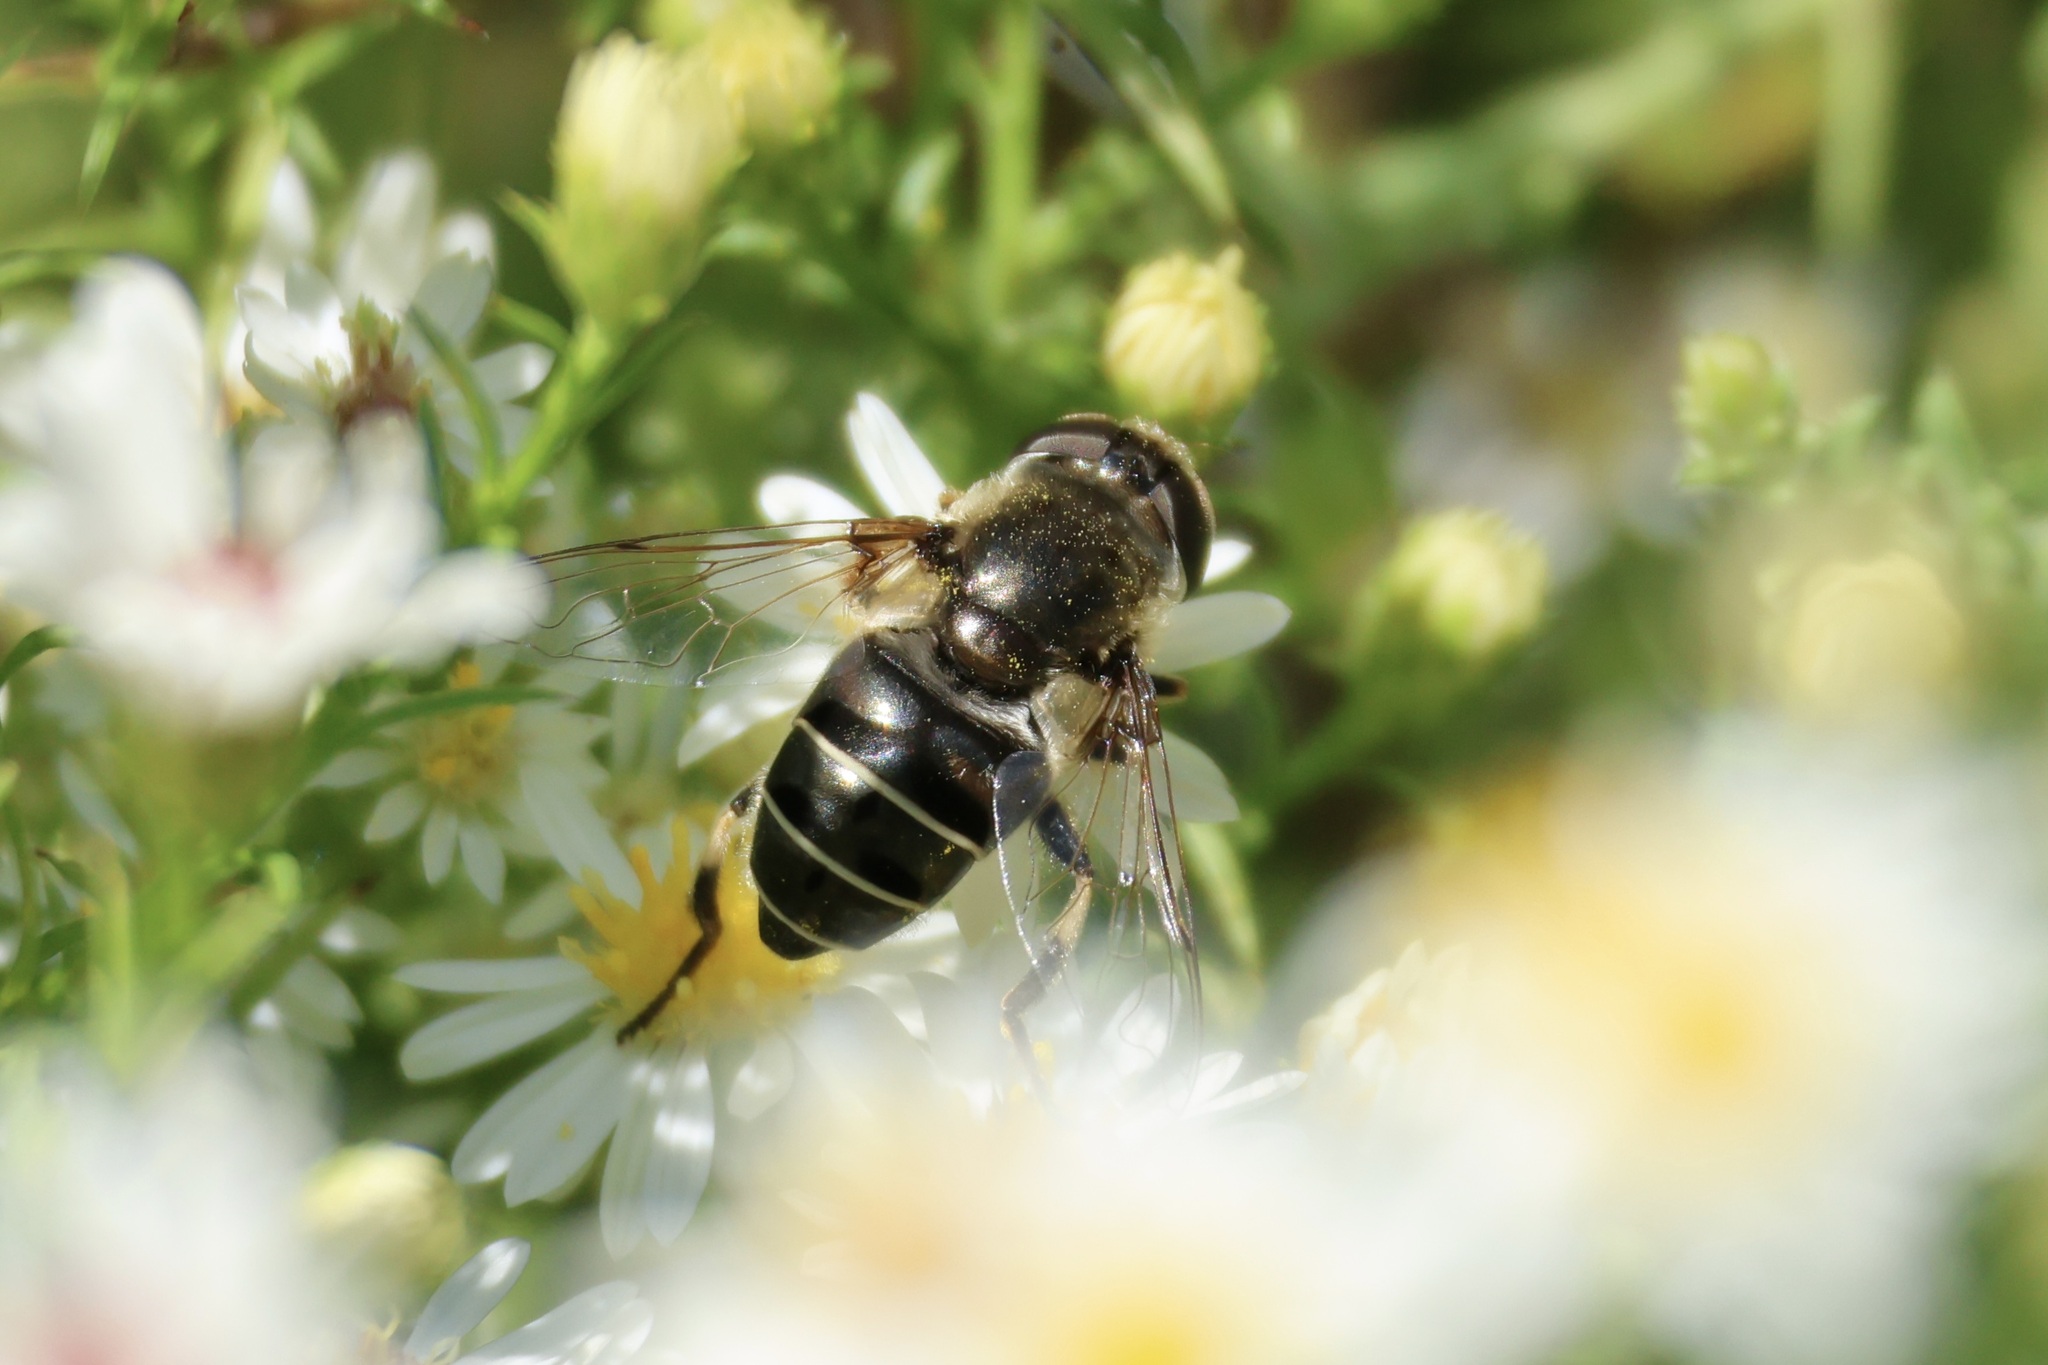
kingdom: Animalia
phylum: Arthropoda
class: Insecta
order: Diptera
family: Syrphidae
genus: Eristalis
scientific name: Eristalis dimidiata
